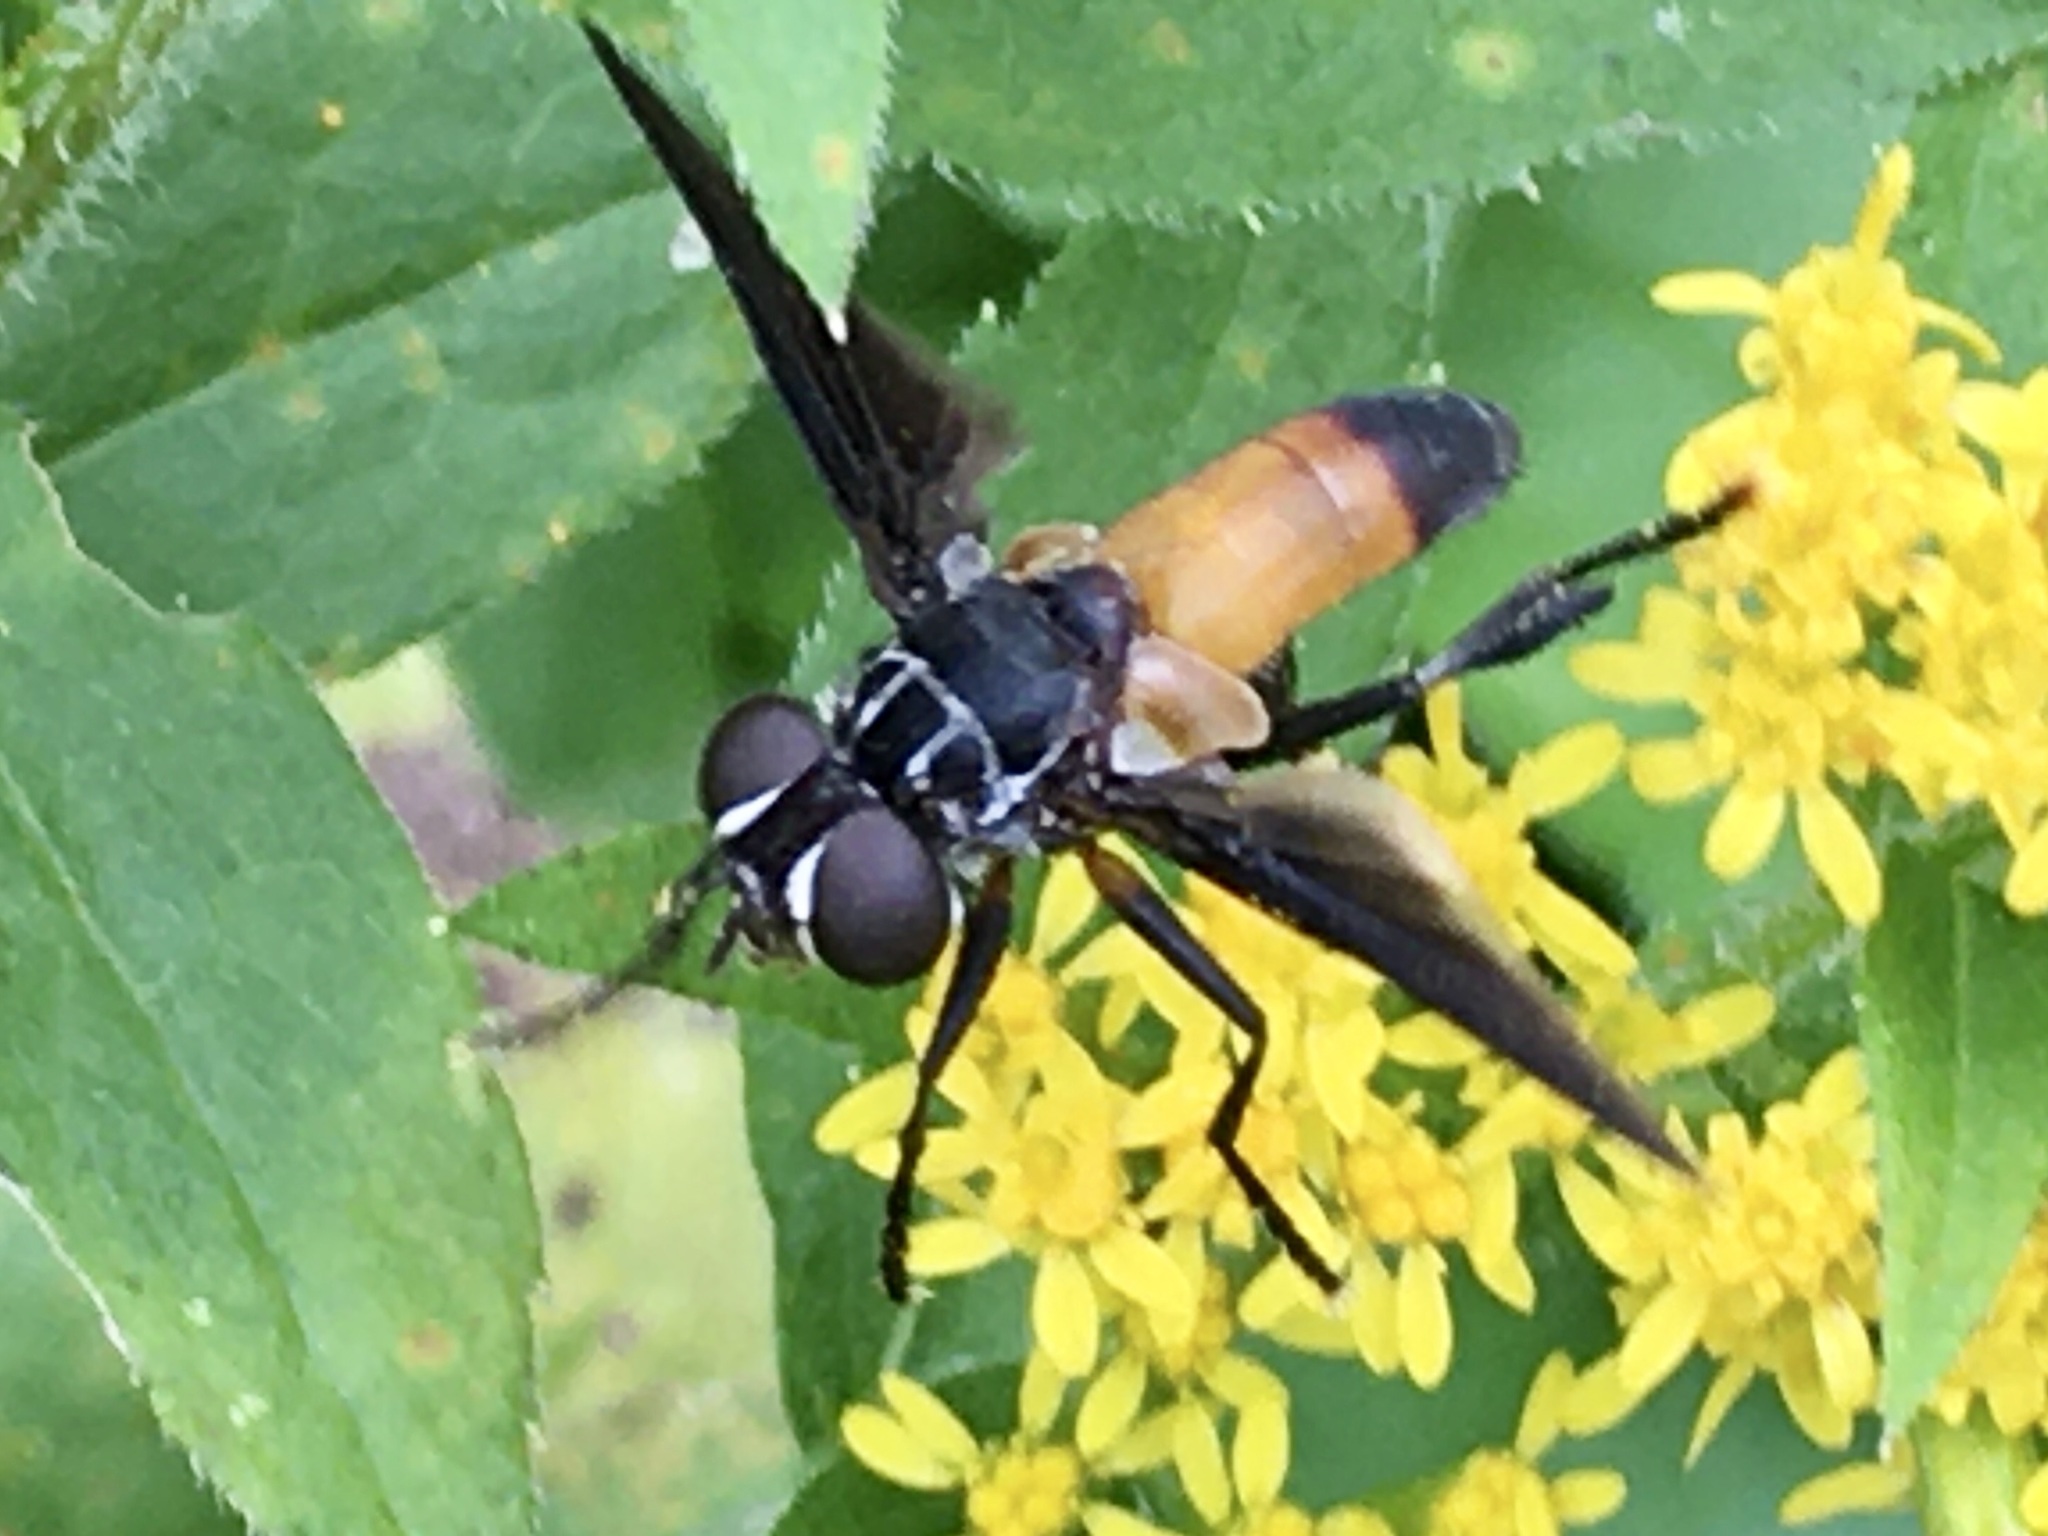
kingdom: Animalia
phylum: Arthropoda
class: Insecta
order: Diptera
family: Tachinidae
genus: Trichopoda
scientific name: Trichopoda pennipes
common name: Tachinid fly
